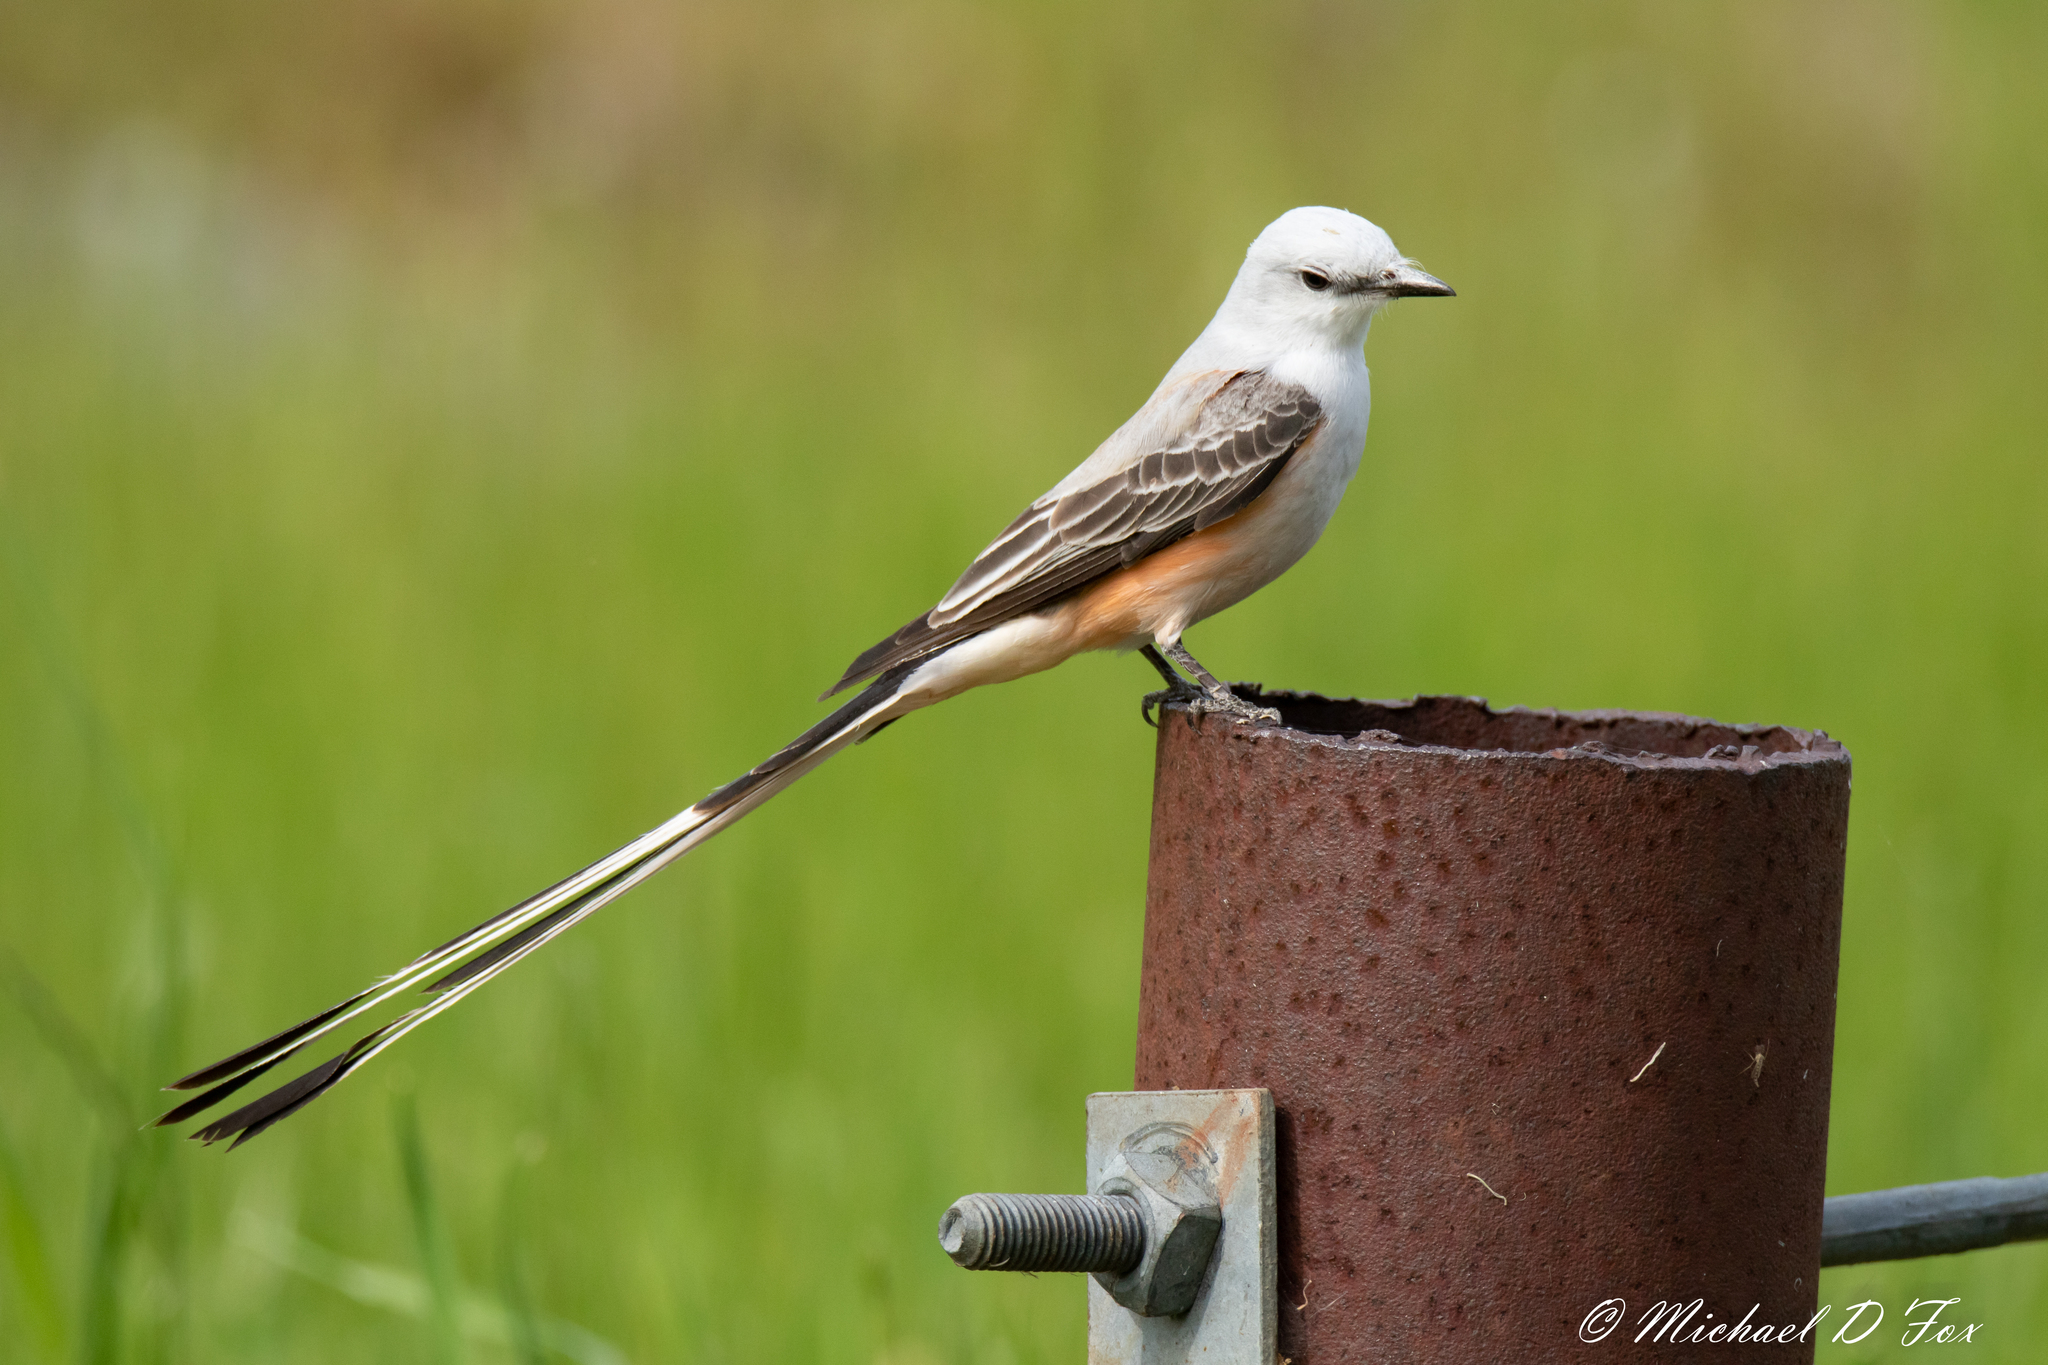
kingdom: Animalia
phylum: Chordata
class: Aves
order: Passeriformes
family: Tyrannidae
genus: Tyrannus
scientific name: Tyrannus forficatus
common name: Scissor-tailed flycatcher
